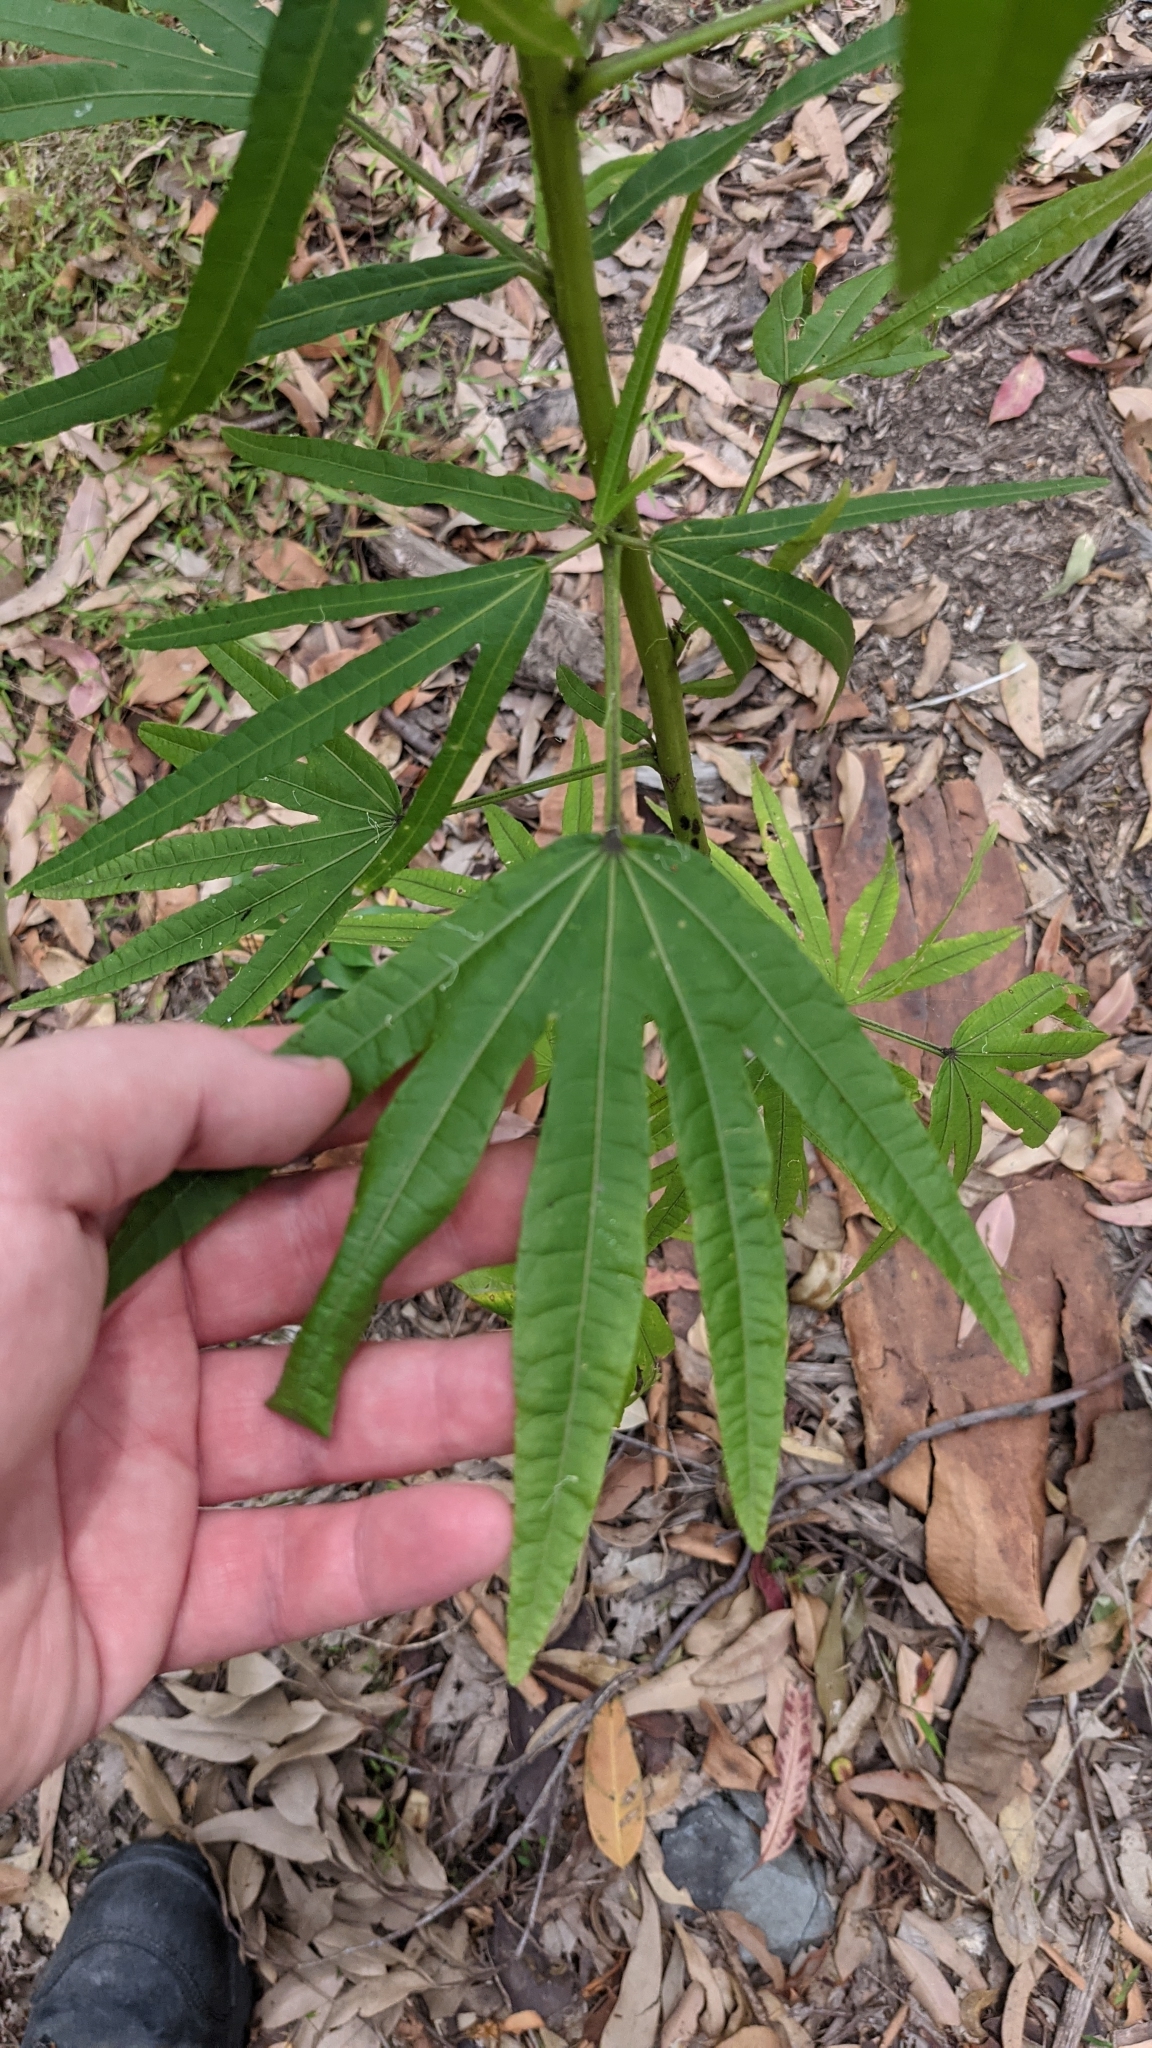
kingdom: Plantae
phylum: Tracheophyta
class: Magnoliopsida
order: Malvales
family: Malvaceae
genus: Hibiscus
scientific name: Hibiscus heterophyllus
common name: Queensland-sorrel
